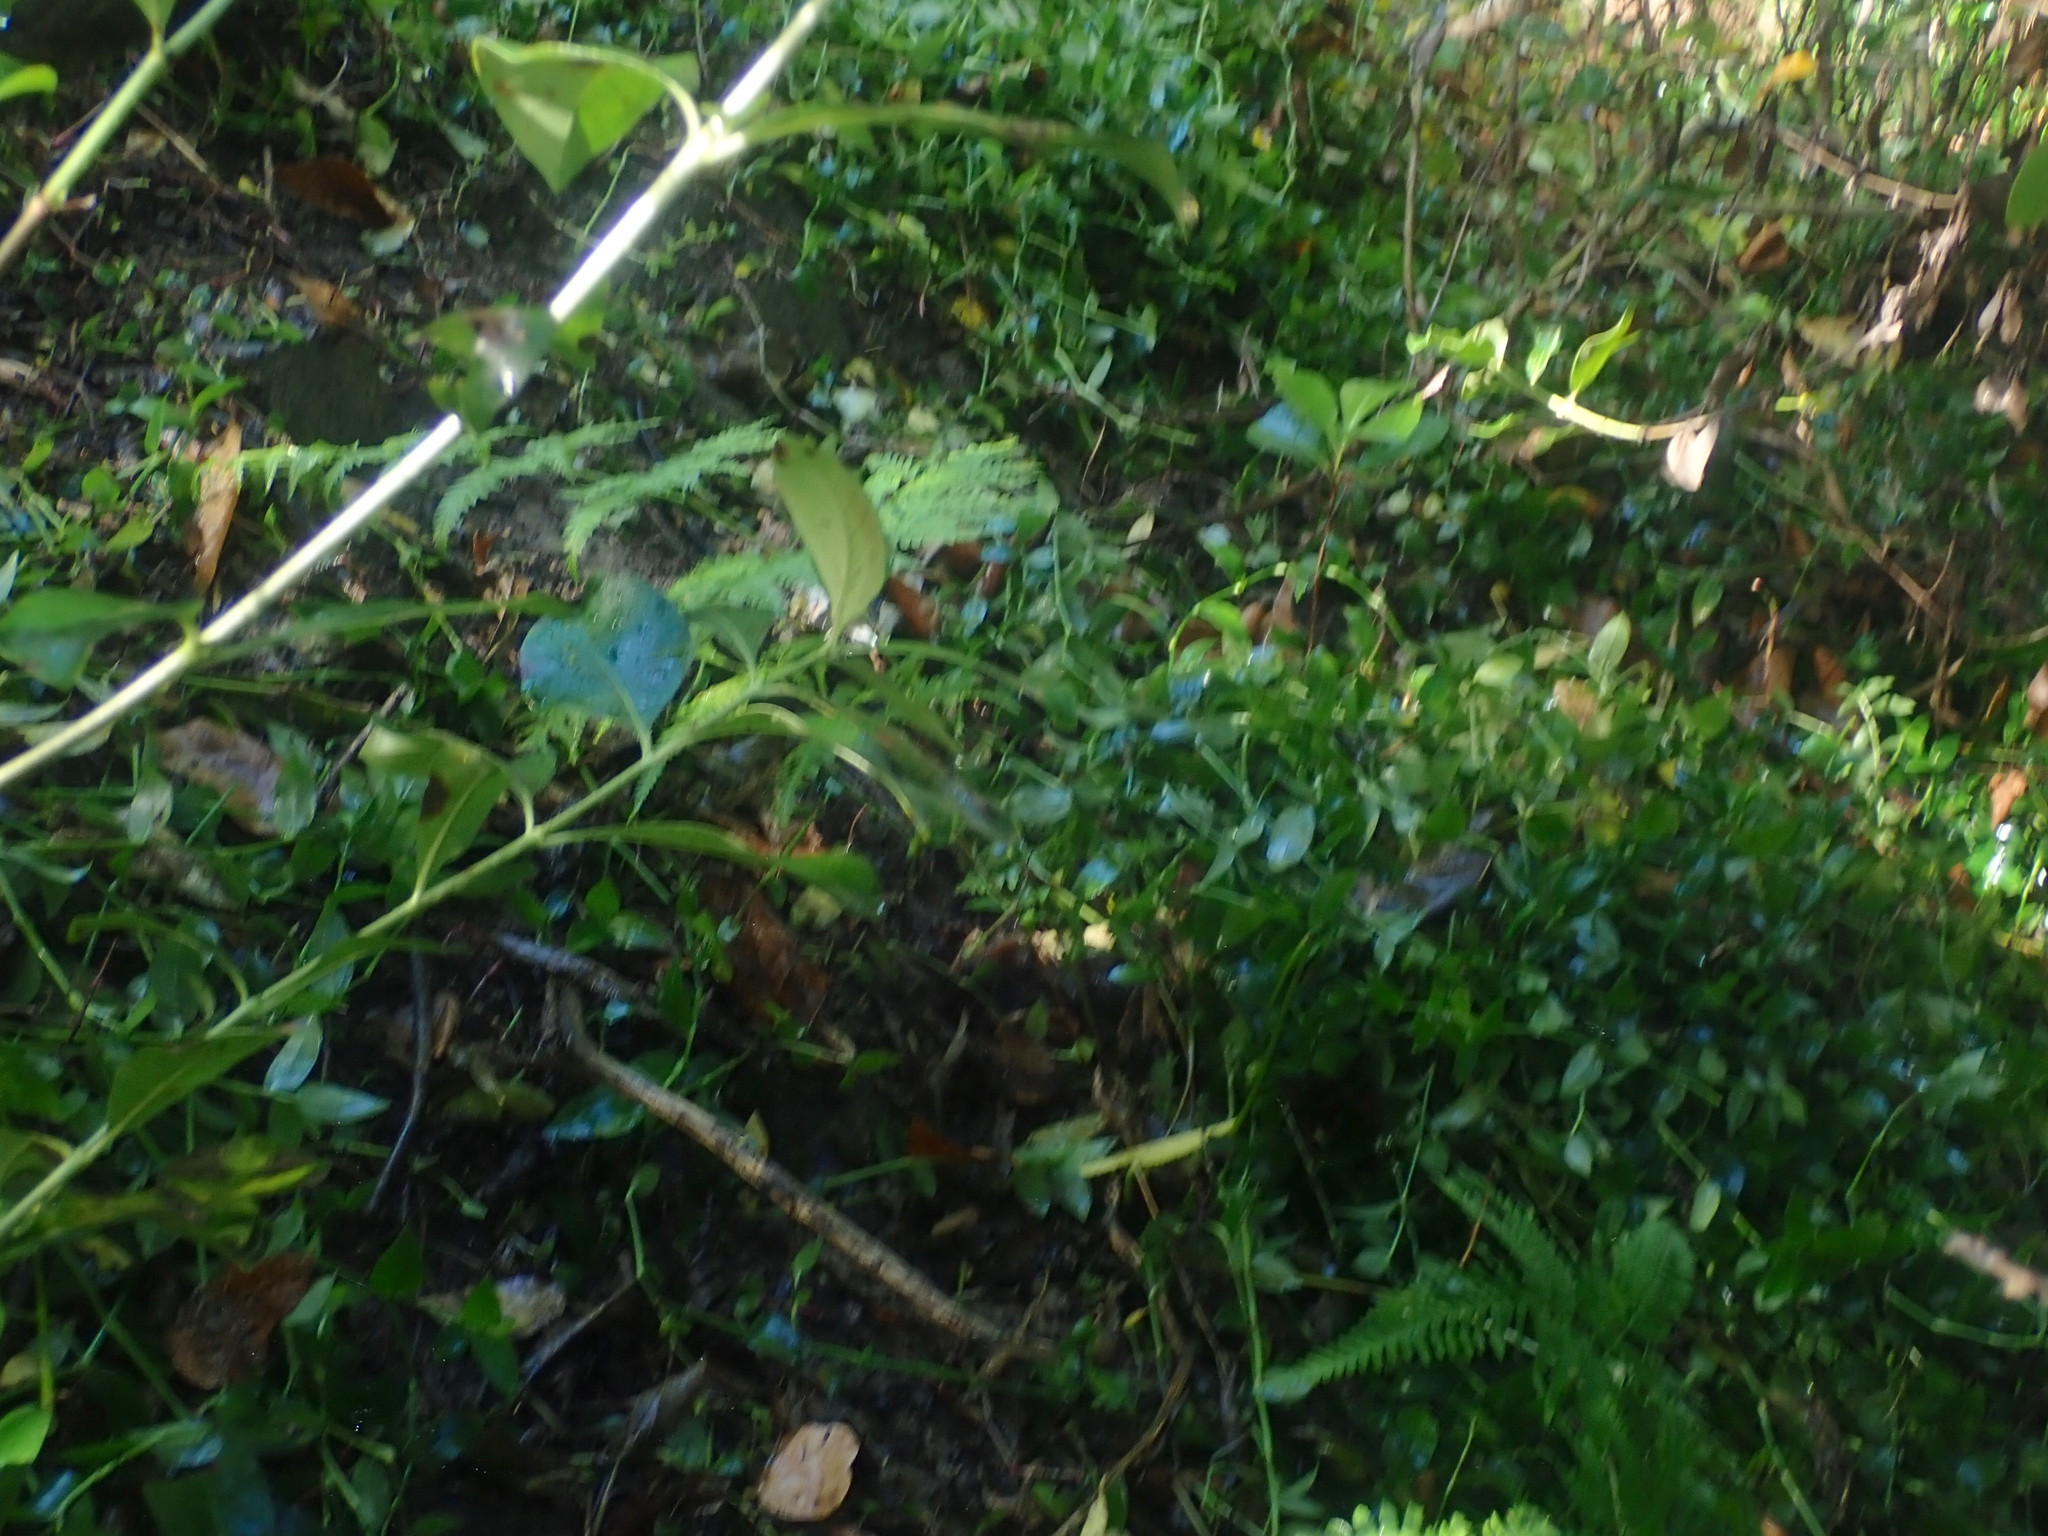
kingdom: Plantae
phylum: Tracheophyta
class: Magnoliopsida
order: Cucurbitales
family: Corynocarpaceae
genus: Corynocarpus
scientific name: Corynocarpus laevigatus
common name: New zealand laurel
